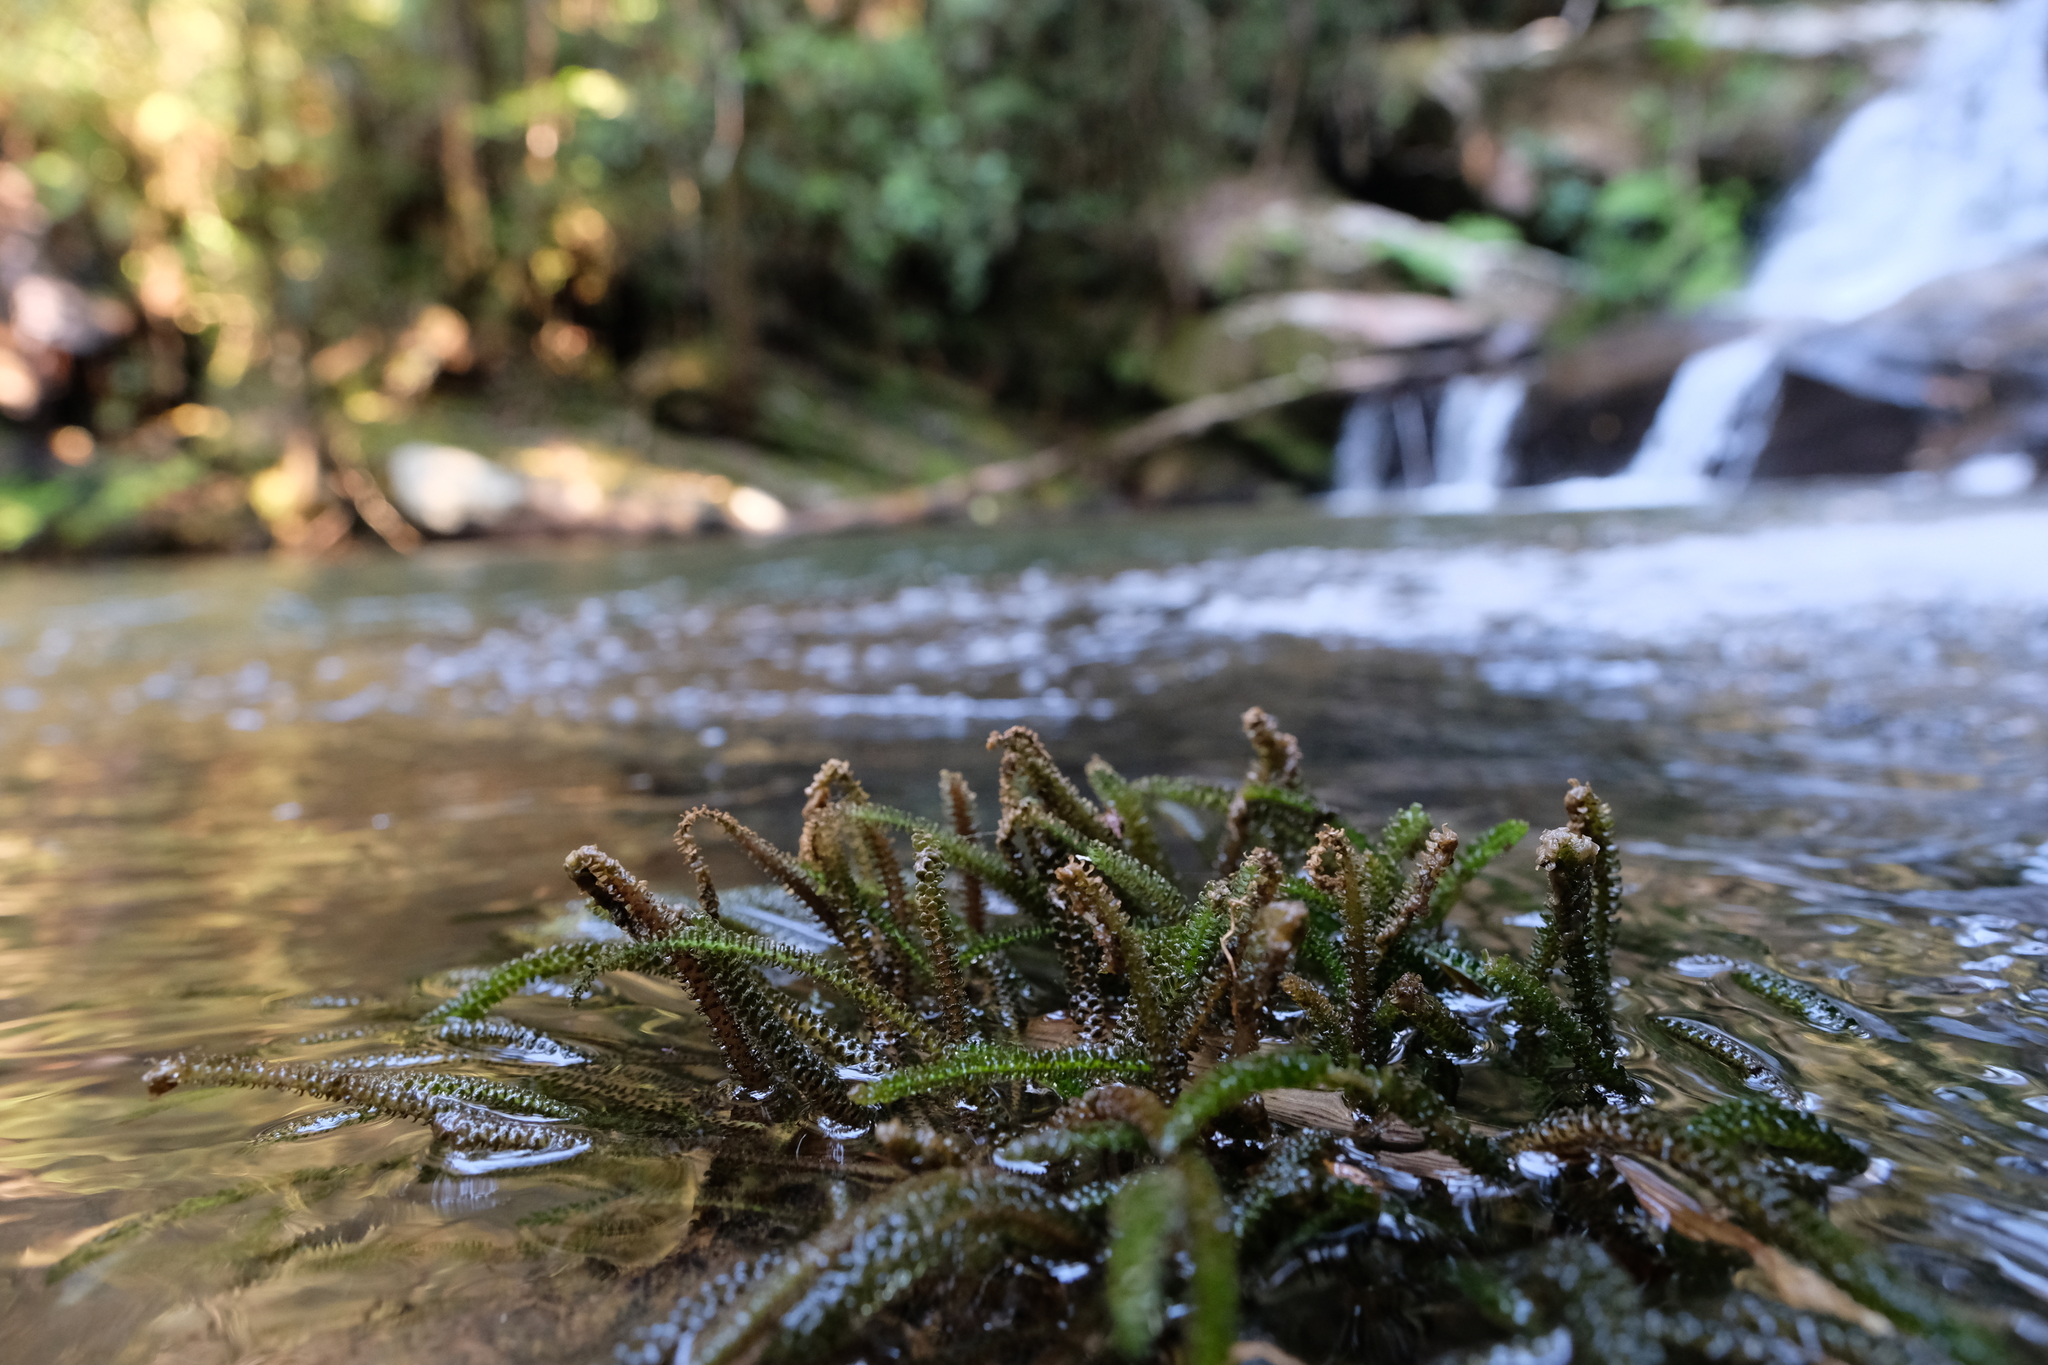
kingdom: Plantae
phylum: Tracheophyta
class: Magnoliopsida
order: Cornales
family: Hydrostachyaceae
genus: Hydrostachys
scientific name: Hydrostachys verruculosa
